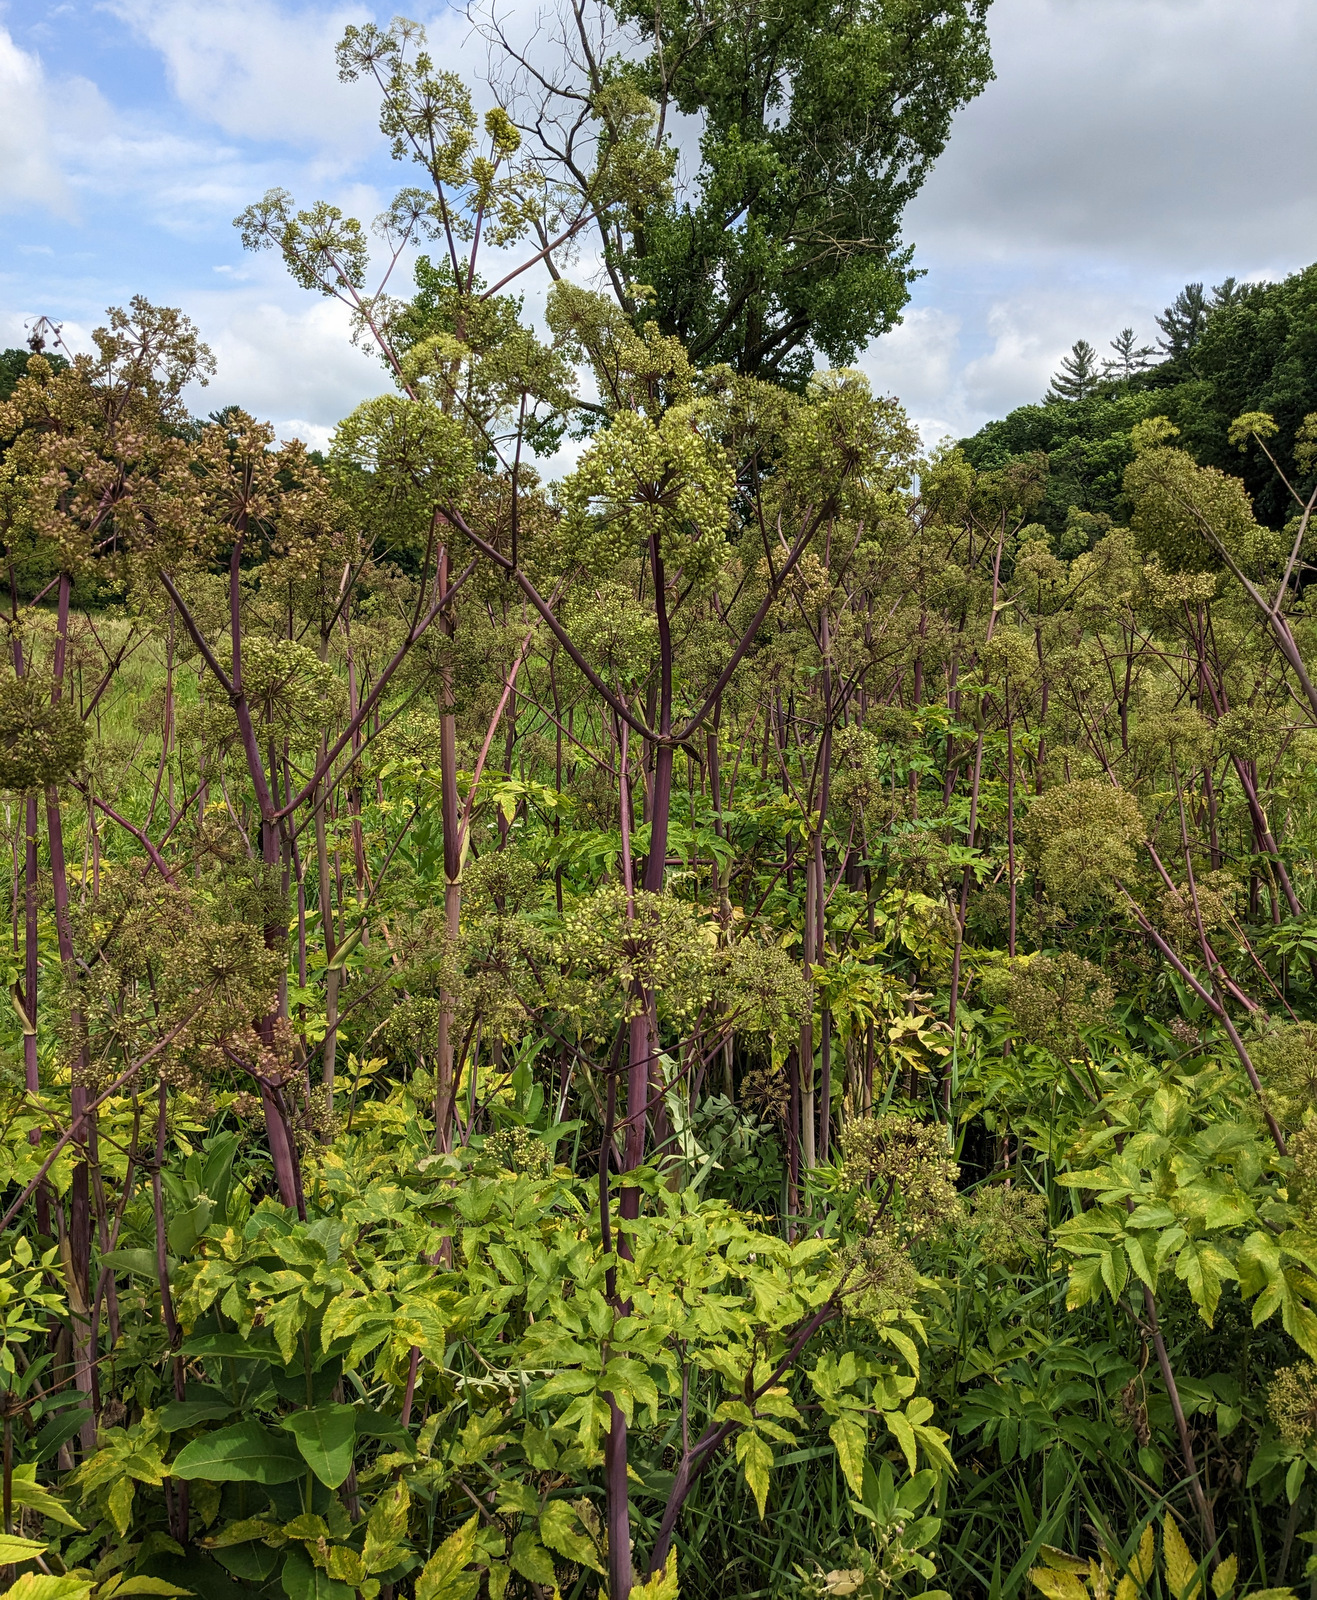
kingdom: Plantae
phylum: Tracheophyta
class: Magnoliopsida
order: Apiales
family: Apiaceae
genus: Angelica
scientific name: Angelica atropurpurea
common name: Great angelica
